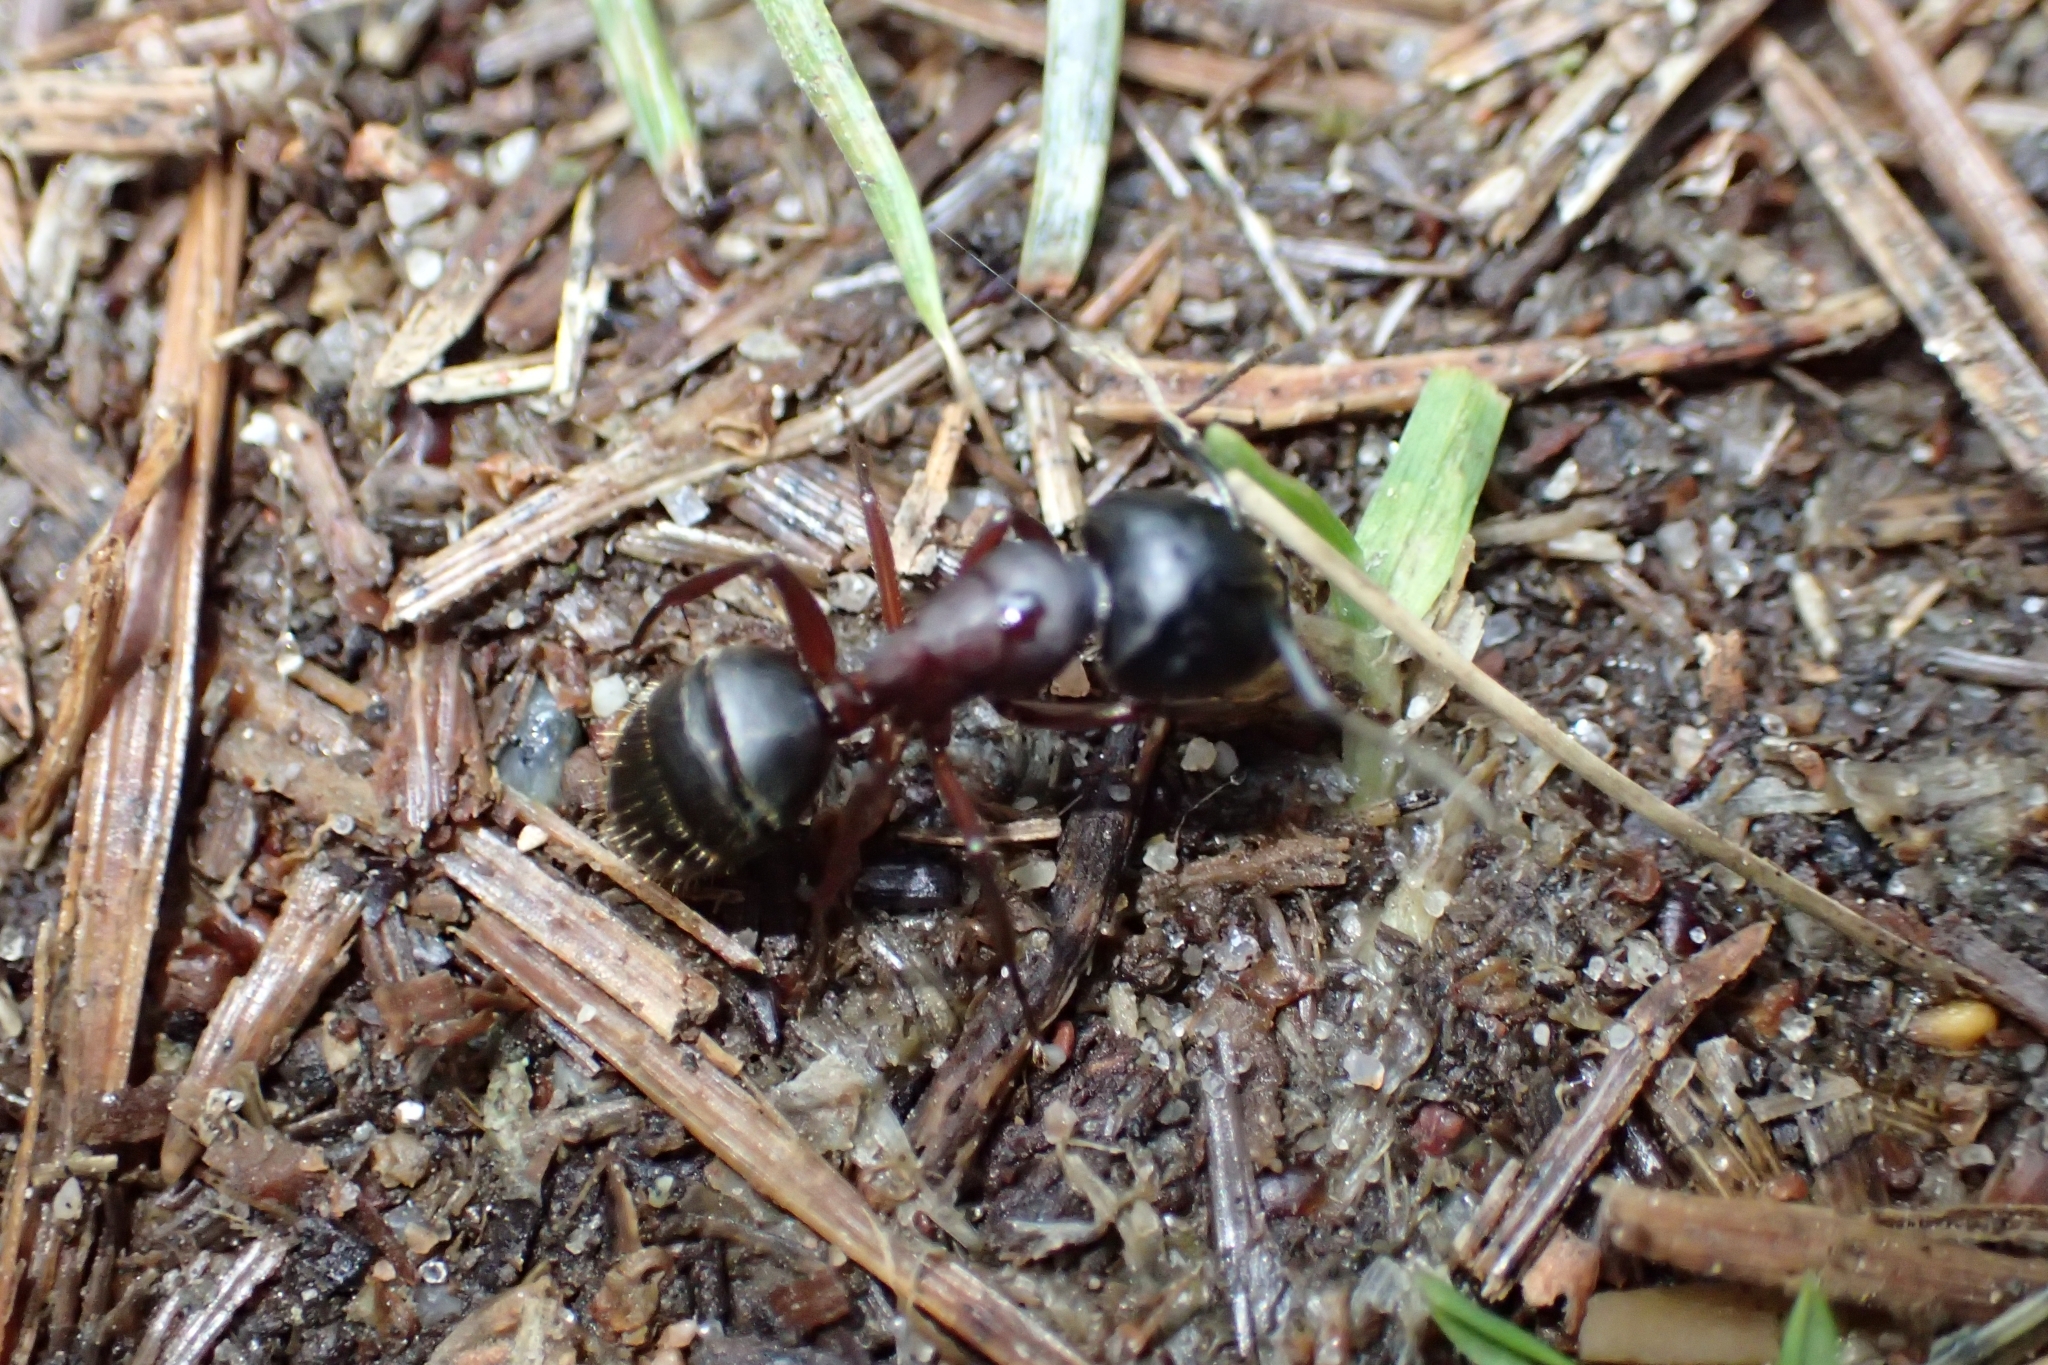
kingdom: Animalia
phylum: Arthropoda
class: Insecta
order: Hymenoptera
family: Formicidae
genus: Camponotus
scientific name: Camponotus herculeanus
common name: Hercules ant
